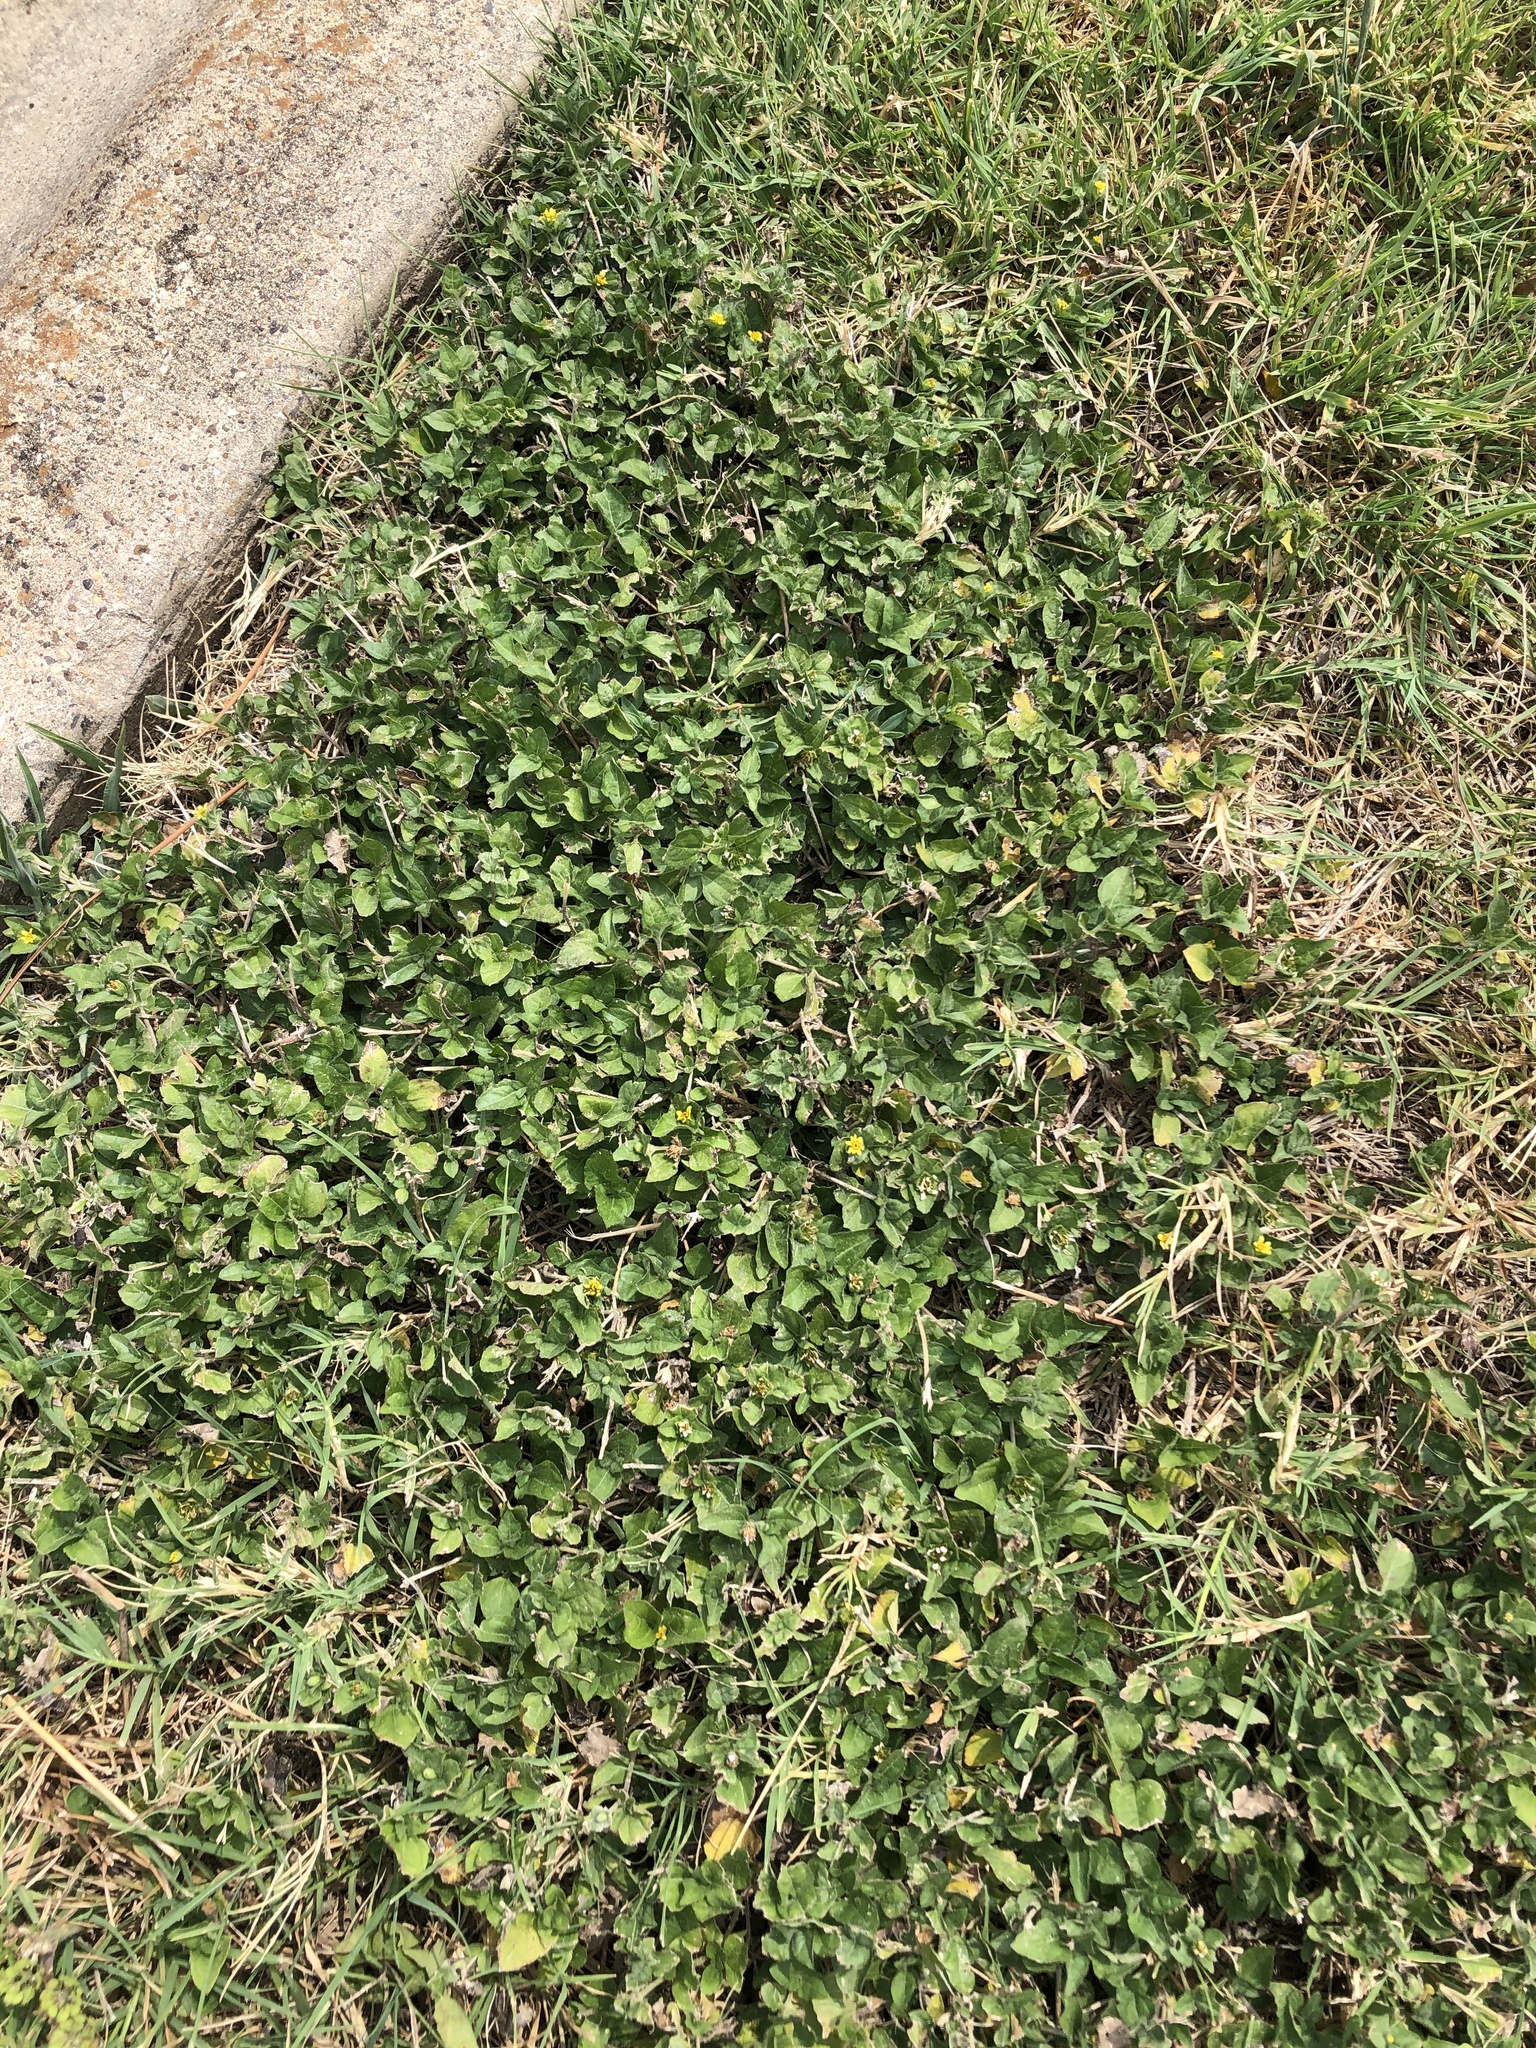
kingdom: Plantae
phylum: Tracheophyta
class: Magnoliopsida
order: Asterales
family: Asteraceae
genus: Calyptocarpus
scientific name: Calyptocarpus vialis
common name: Straggler daisy
